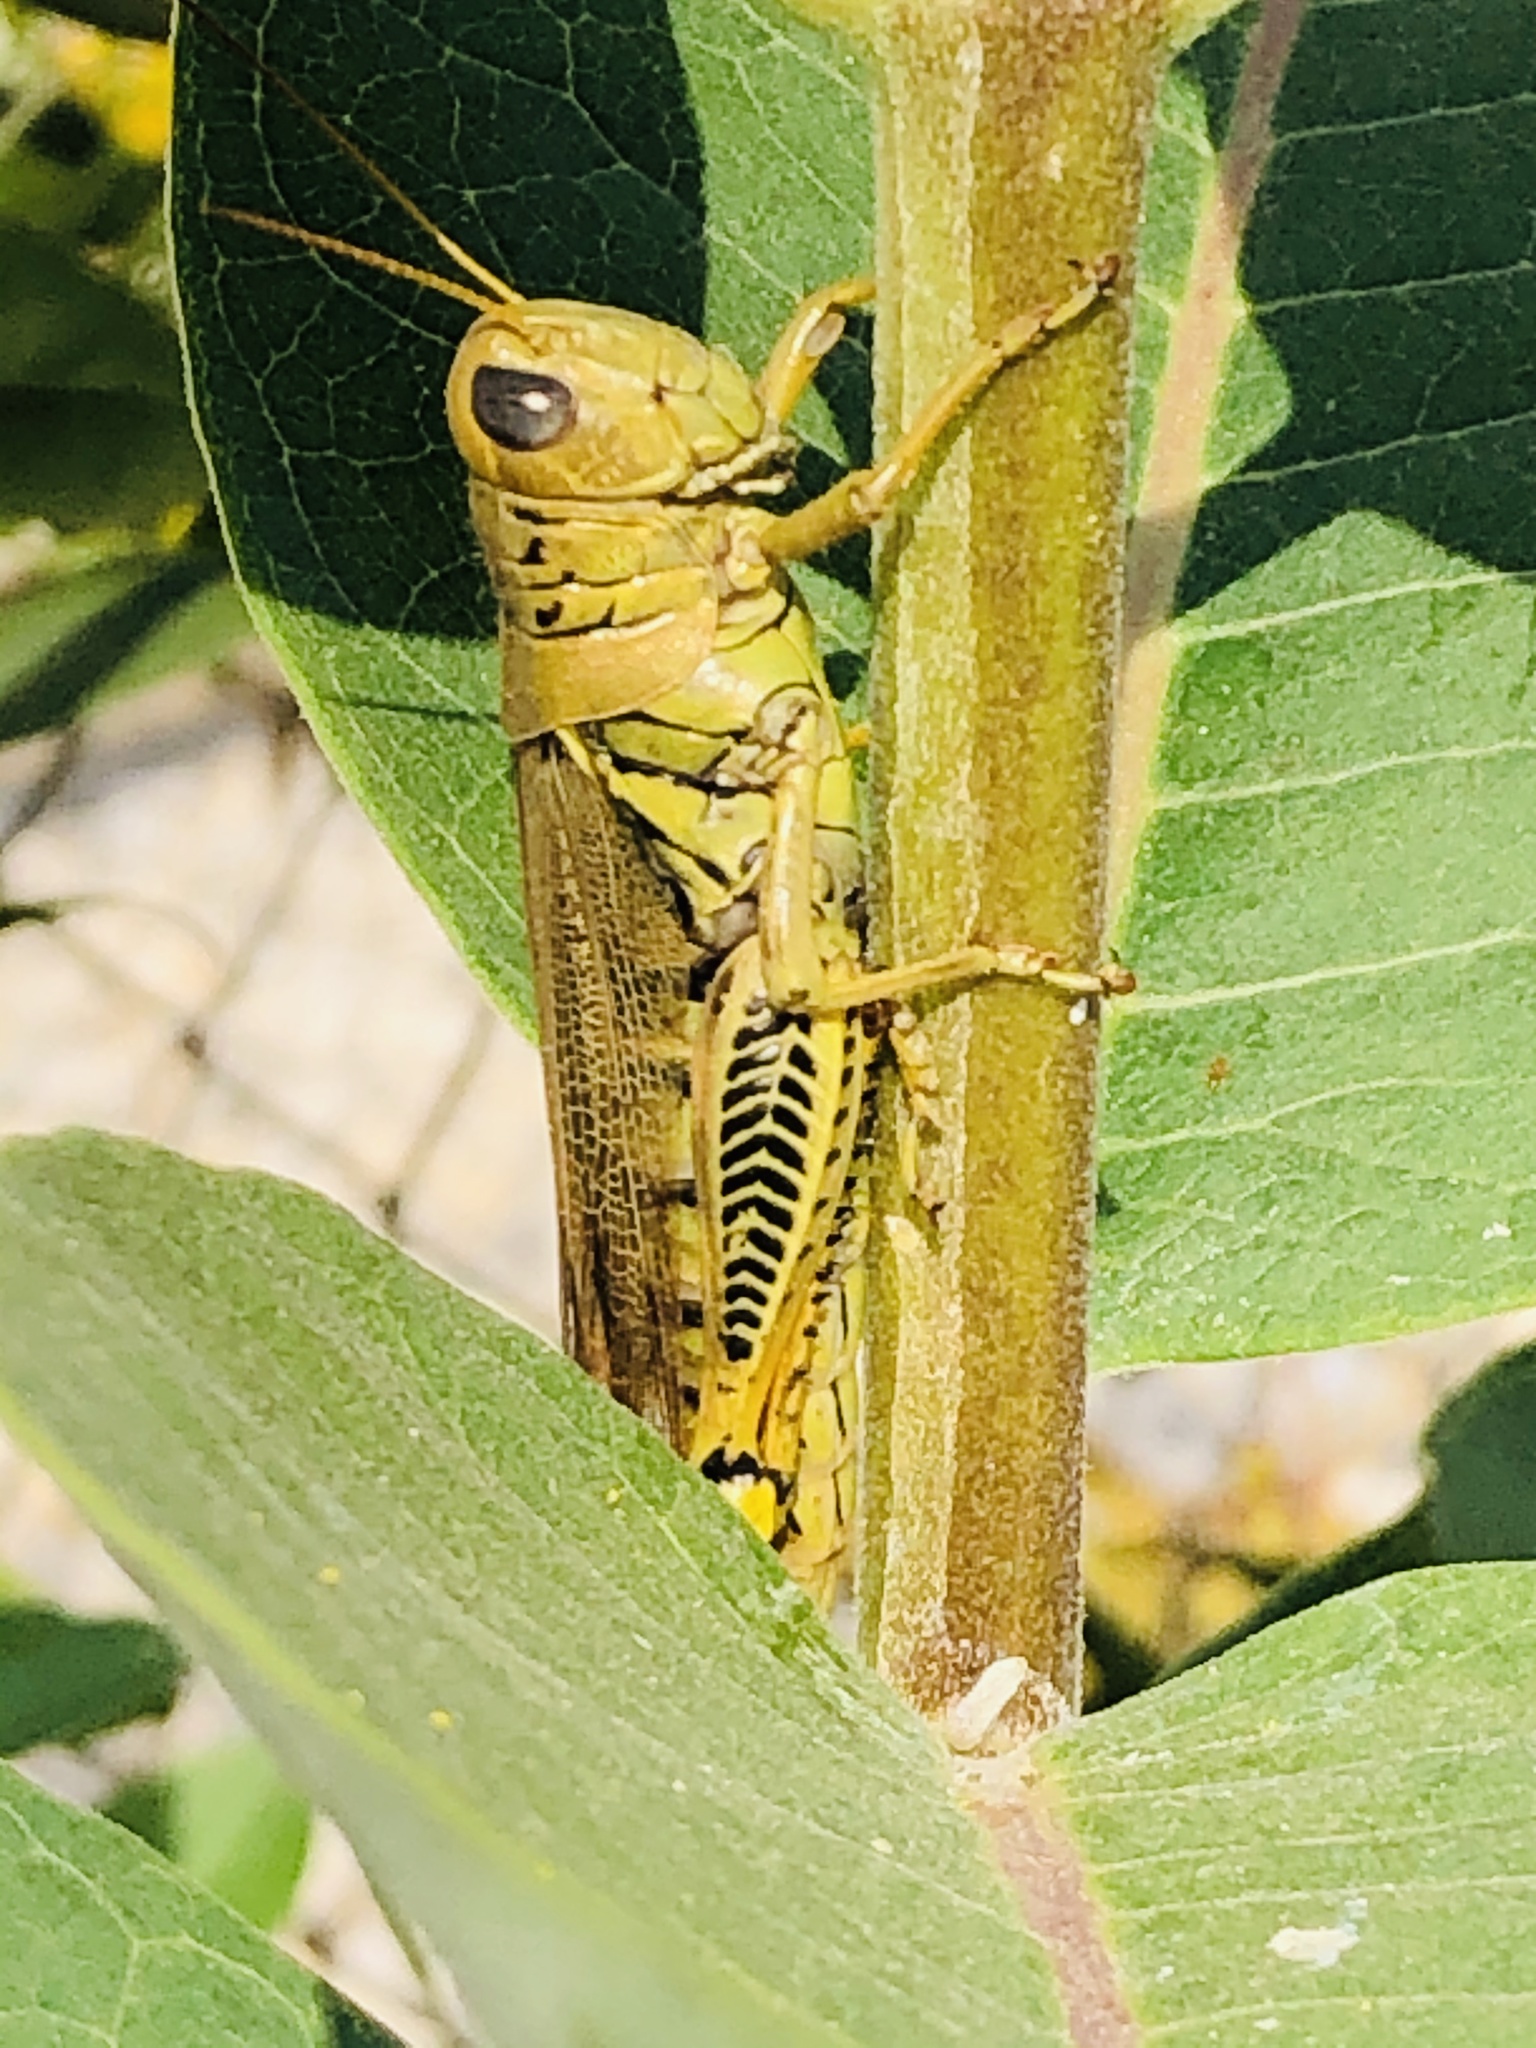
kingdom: Animalia
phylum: Arthropoda
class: Insecta
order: Orthoptera
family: Acrididae
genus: Melanoplus
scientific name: Melanoplus differentialis
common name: Differential grasshopper
